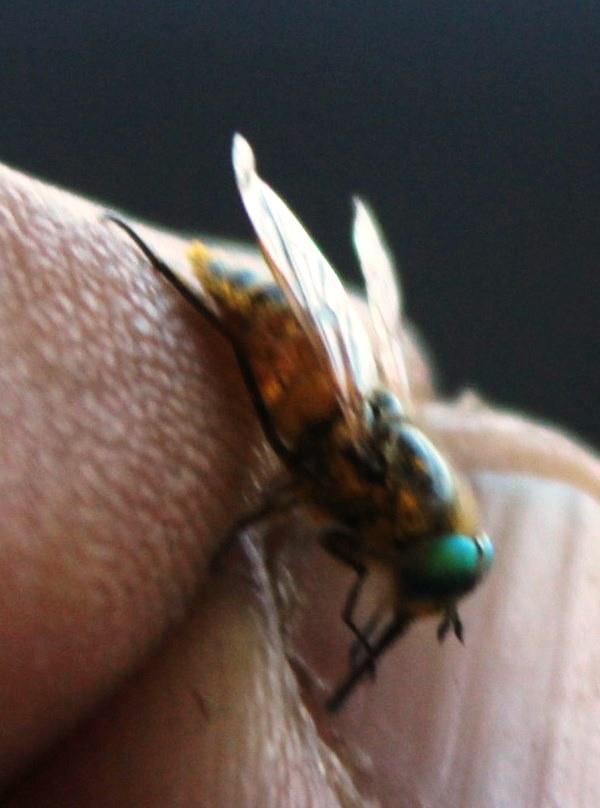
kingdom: Animalia
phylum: Arthropoda
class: Insecta
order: Diptera
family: Tabanidae
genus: Rhigioglossa
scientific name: Rhigioglossa edentula
